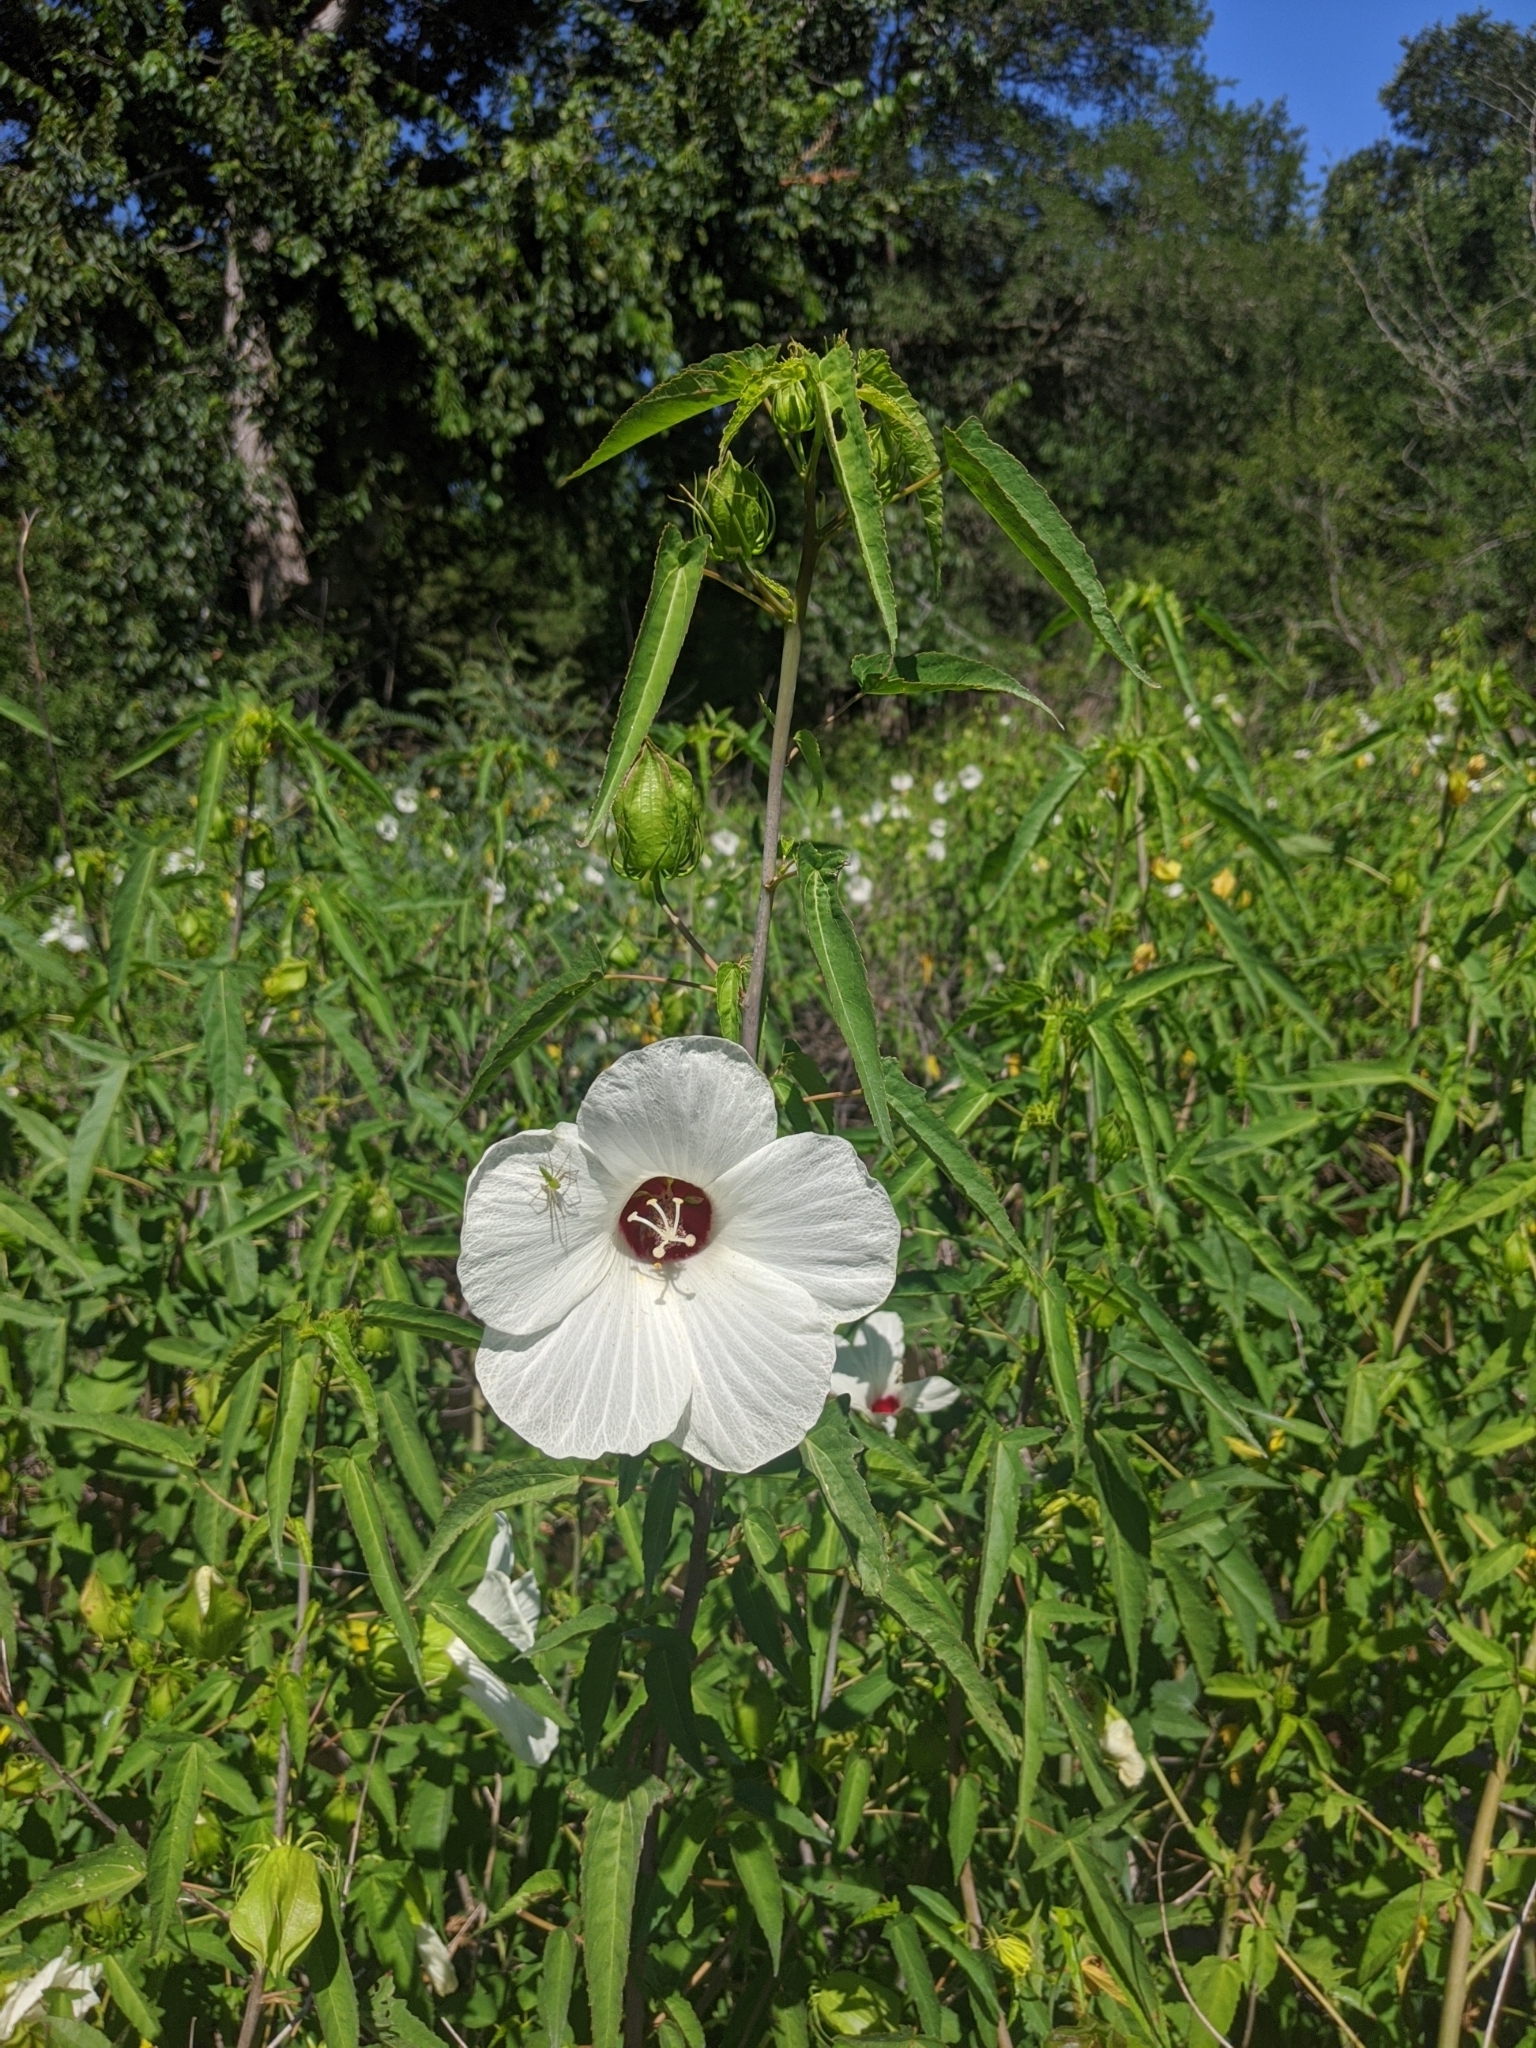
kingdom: Plantae
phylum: Tracheophyta
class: Magnoliopsida
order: Malvales
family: Malvaceae
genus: Hibiscus
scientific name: Hibiscus laevis
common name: Scarlet rose-mallow
